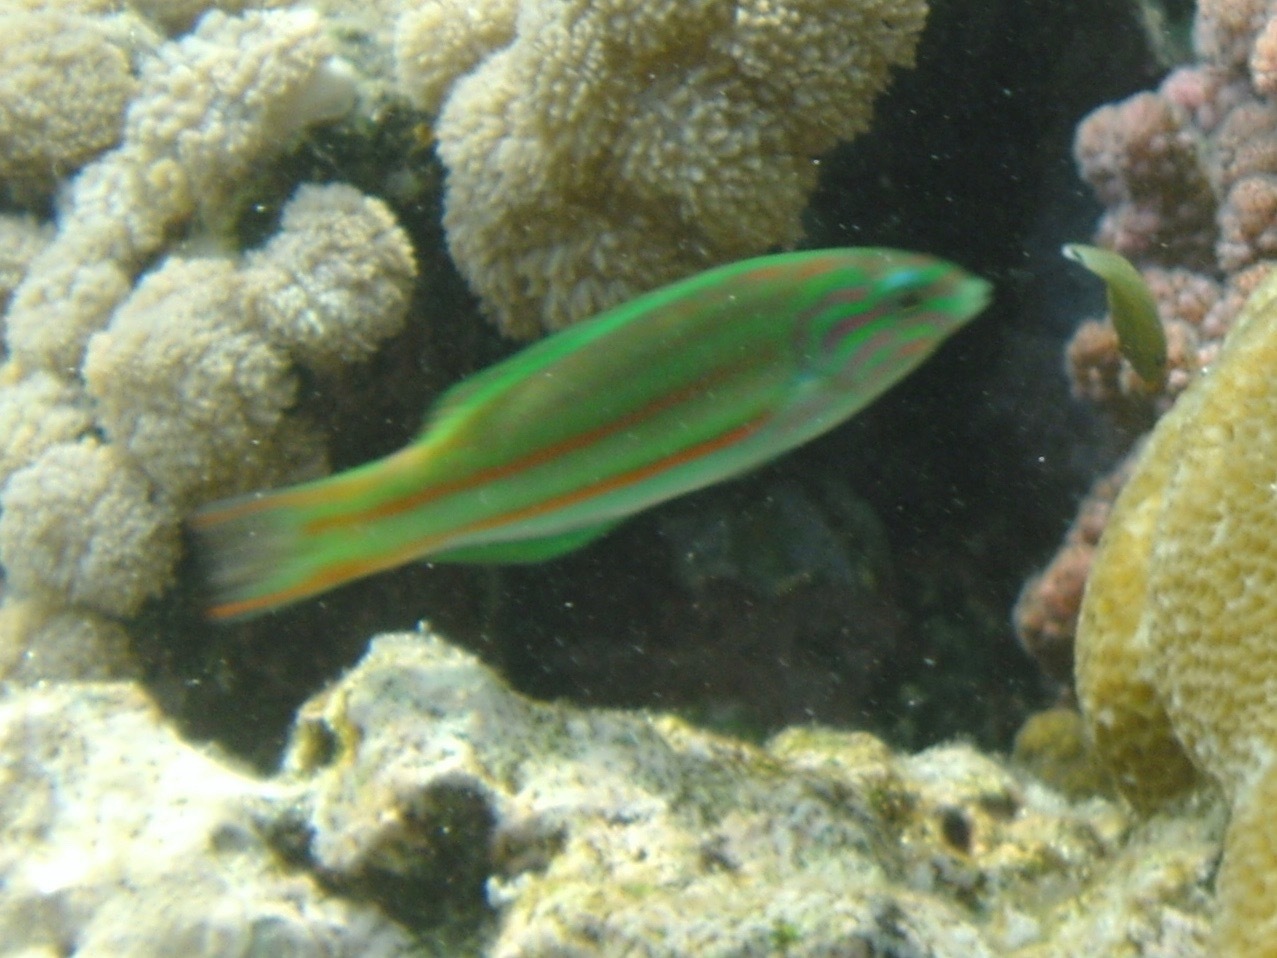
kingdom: Animalia
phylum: Chordata
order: Perciformes
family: Labridae
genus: Thalassoma
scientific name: Thalassoma rueppellii
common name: Klunzinger's wrasse
